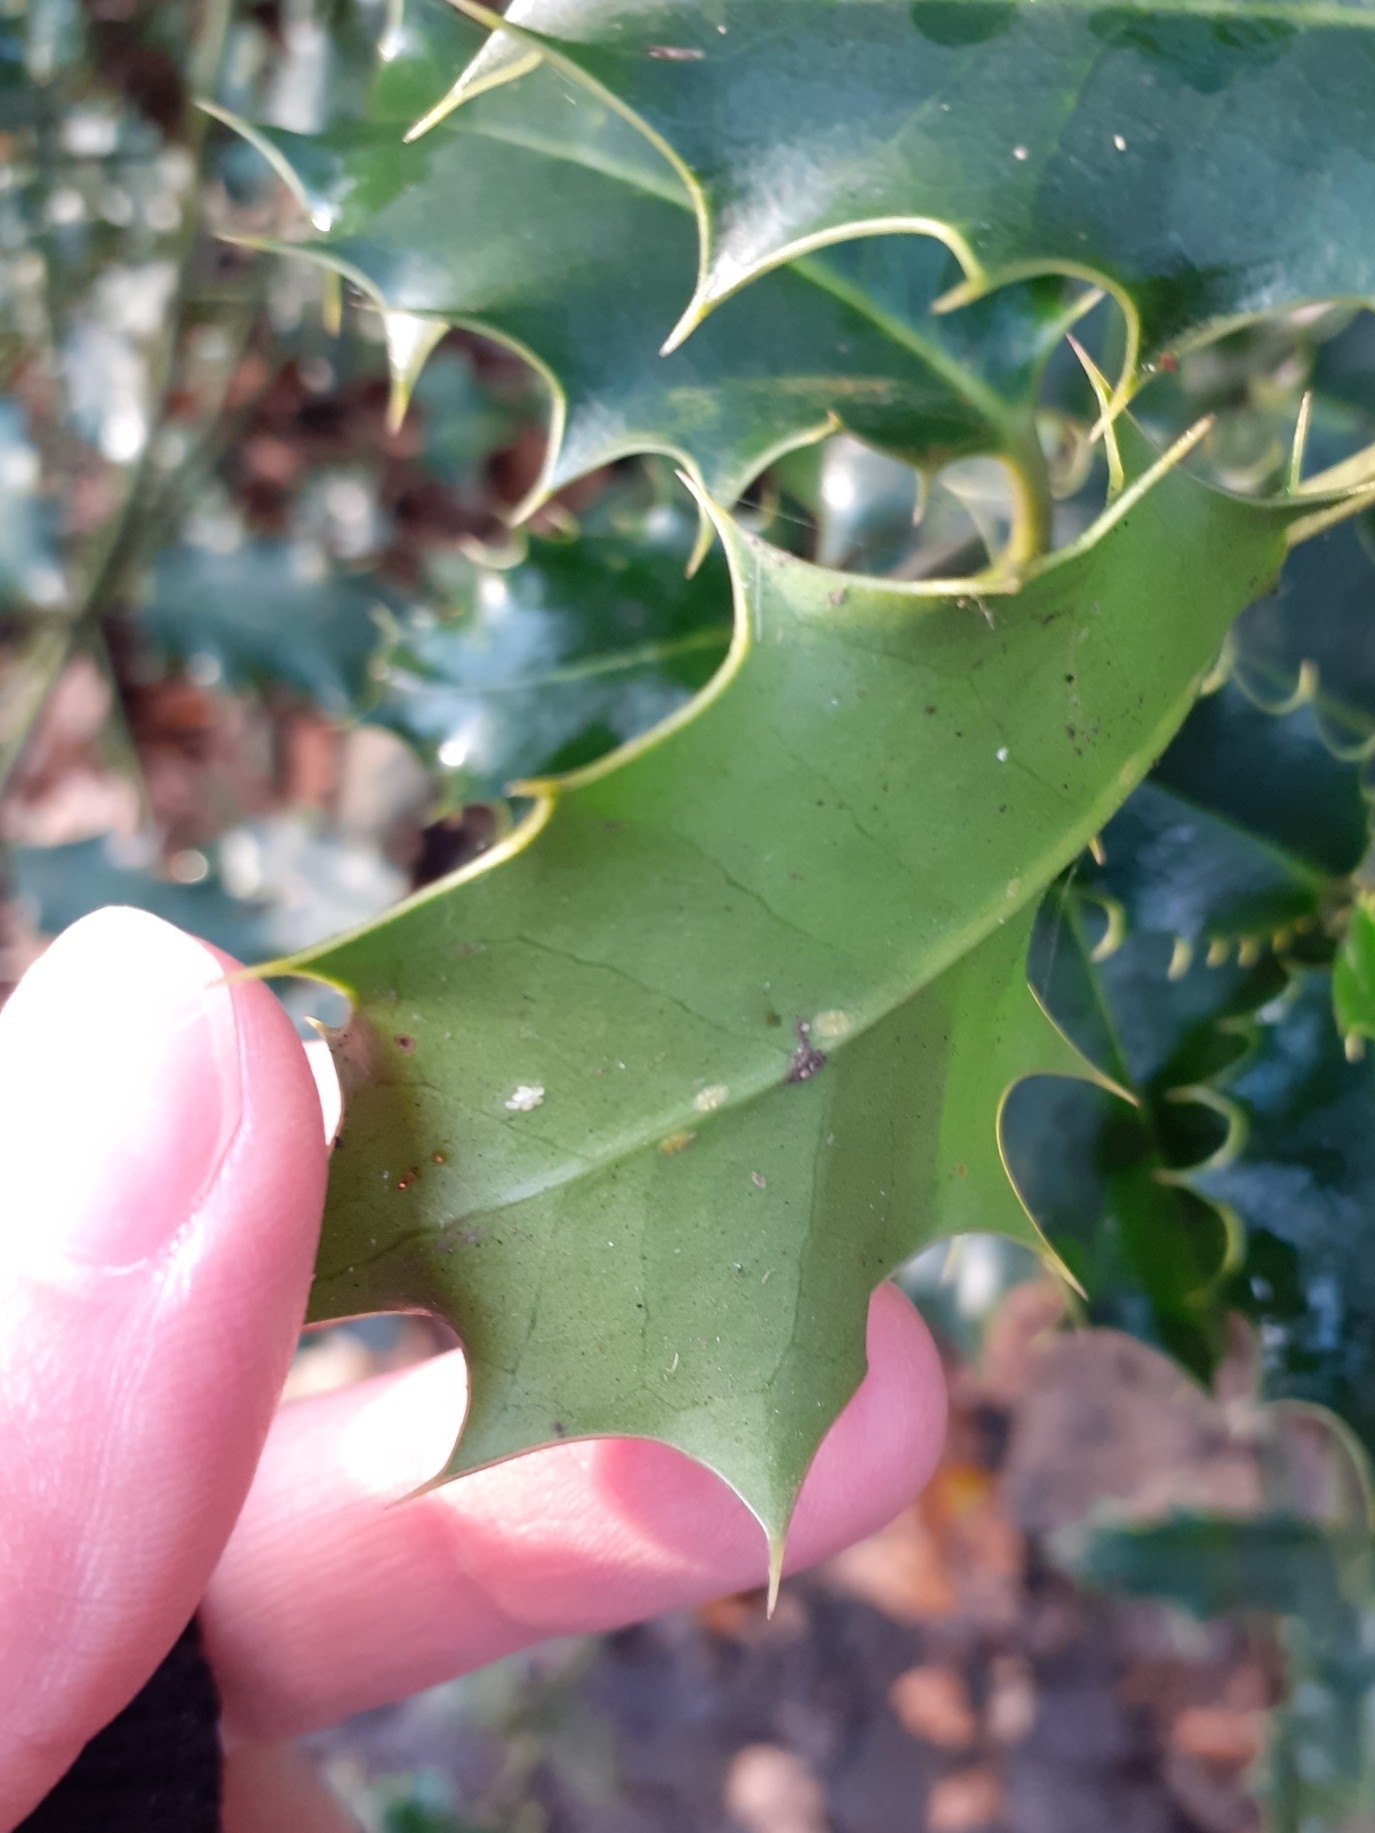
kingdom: Plantae
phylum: Tracheophyta
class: Magnoliopsida
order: Aquifoliales
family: Aquifoliaceae
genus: Ilex
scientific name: Ilex aquifolium
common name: English holly
